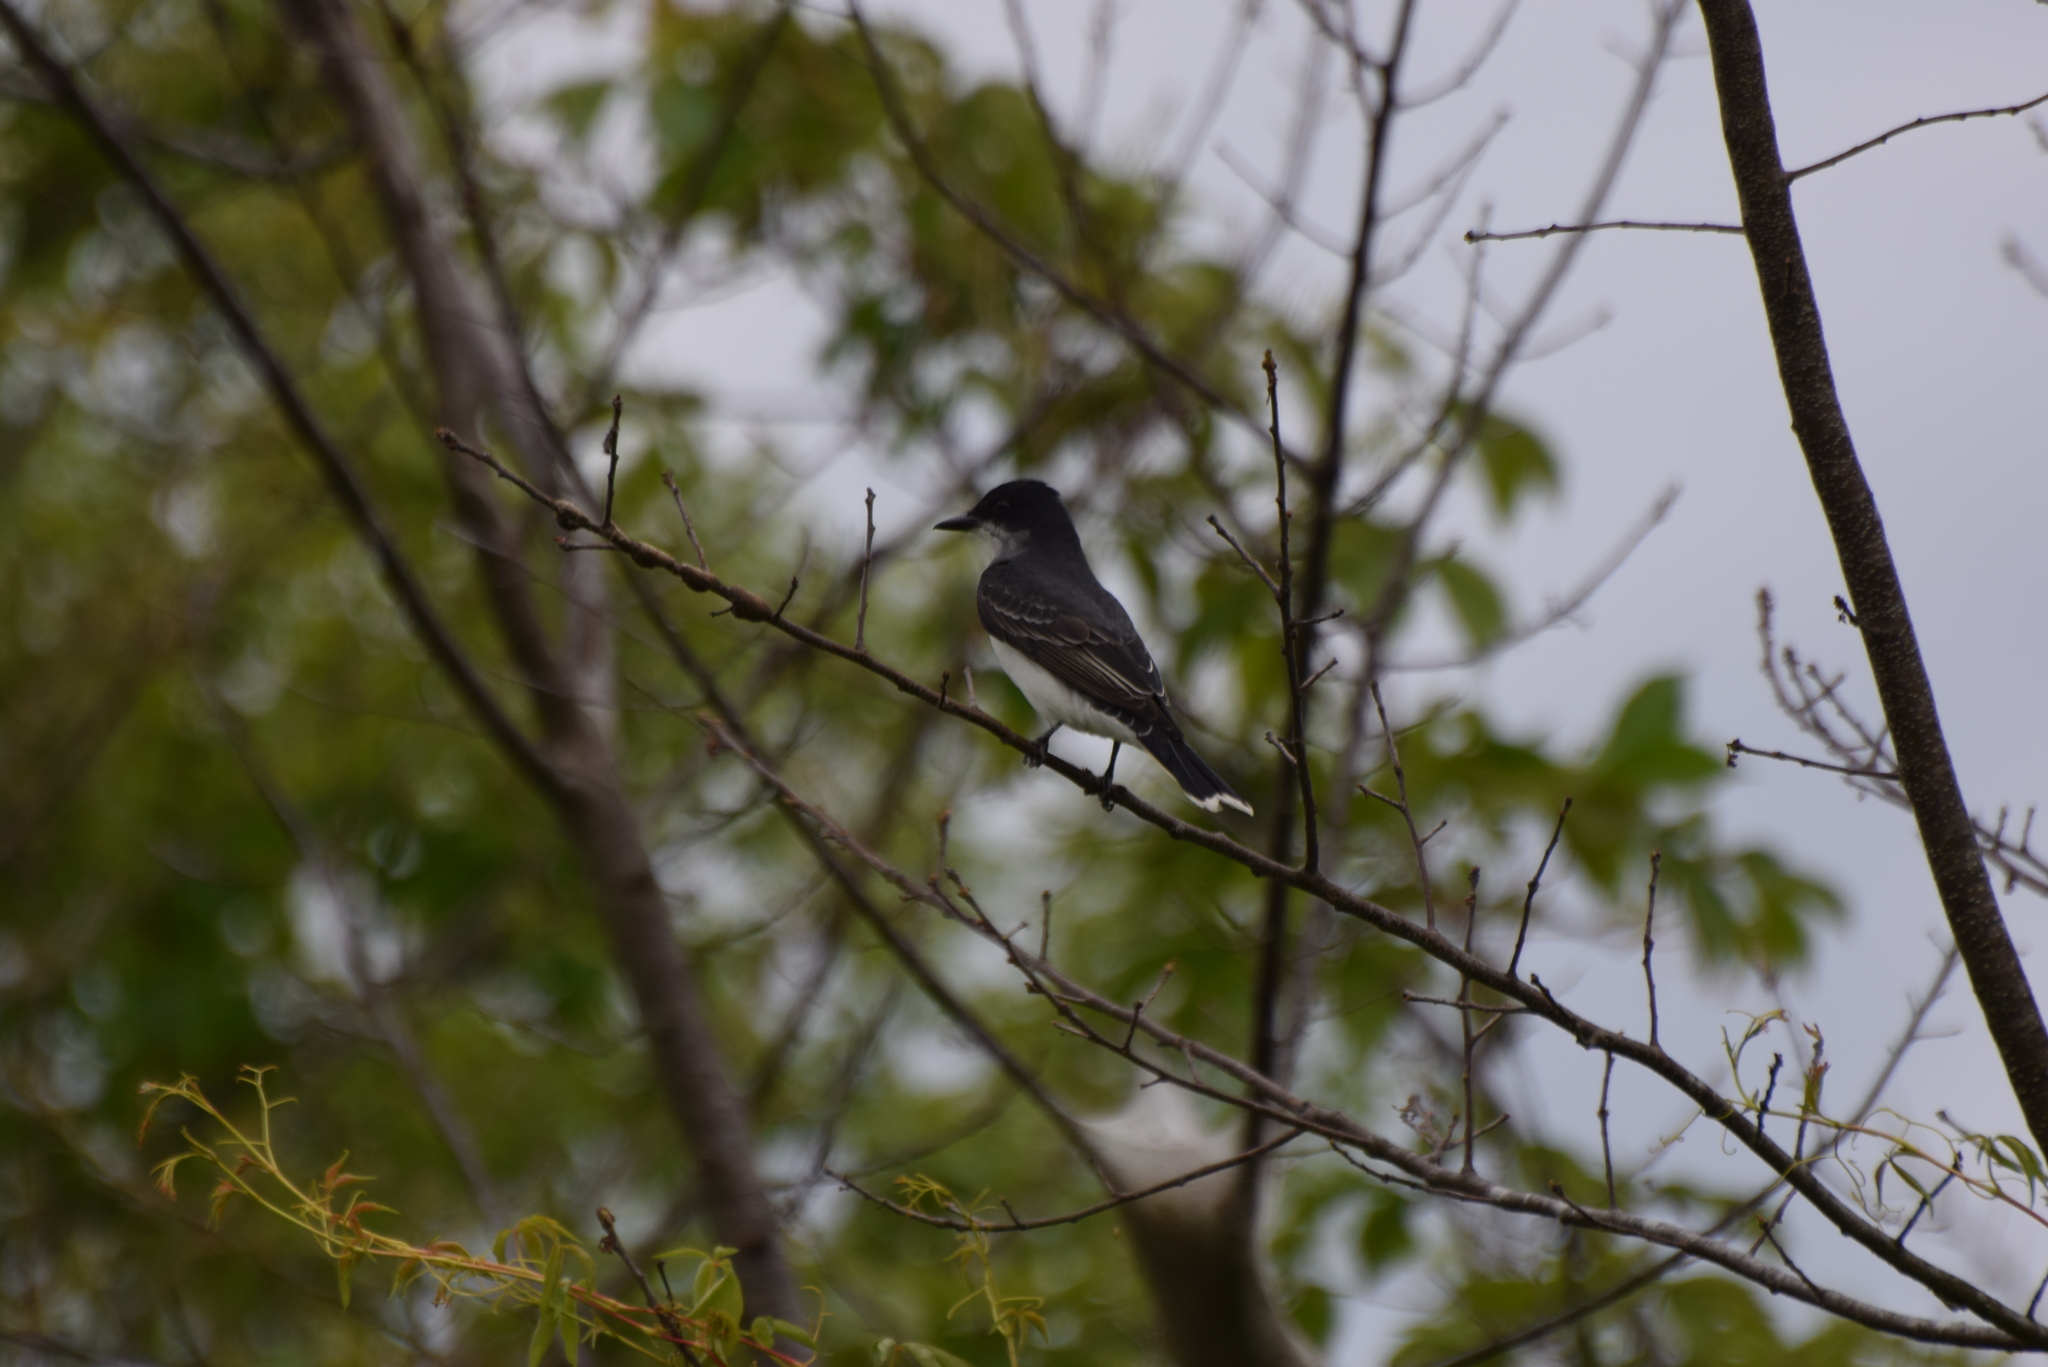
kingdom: Animalia
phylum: Chordata
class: Aves
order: Passeriformes
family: Tyrannidae
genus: Tyrannus
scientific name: Tyrannus tyrannus
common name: Eastern kingbird
